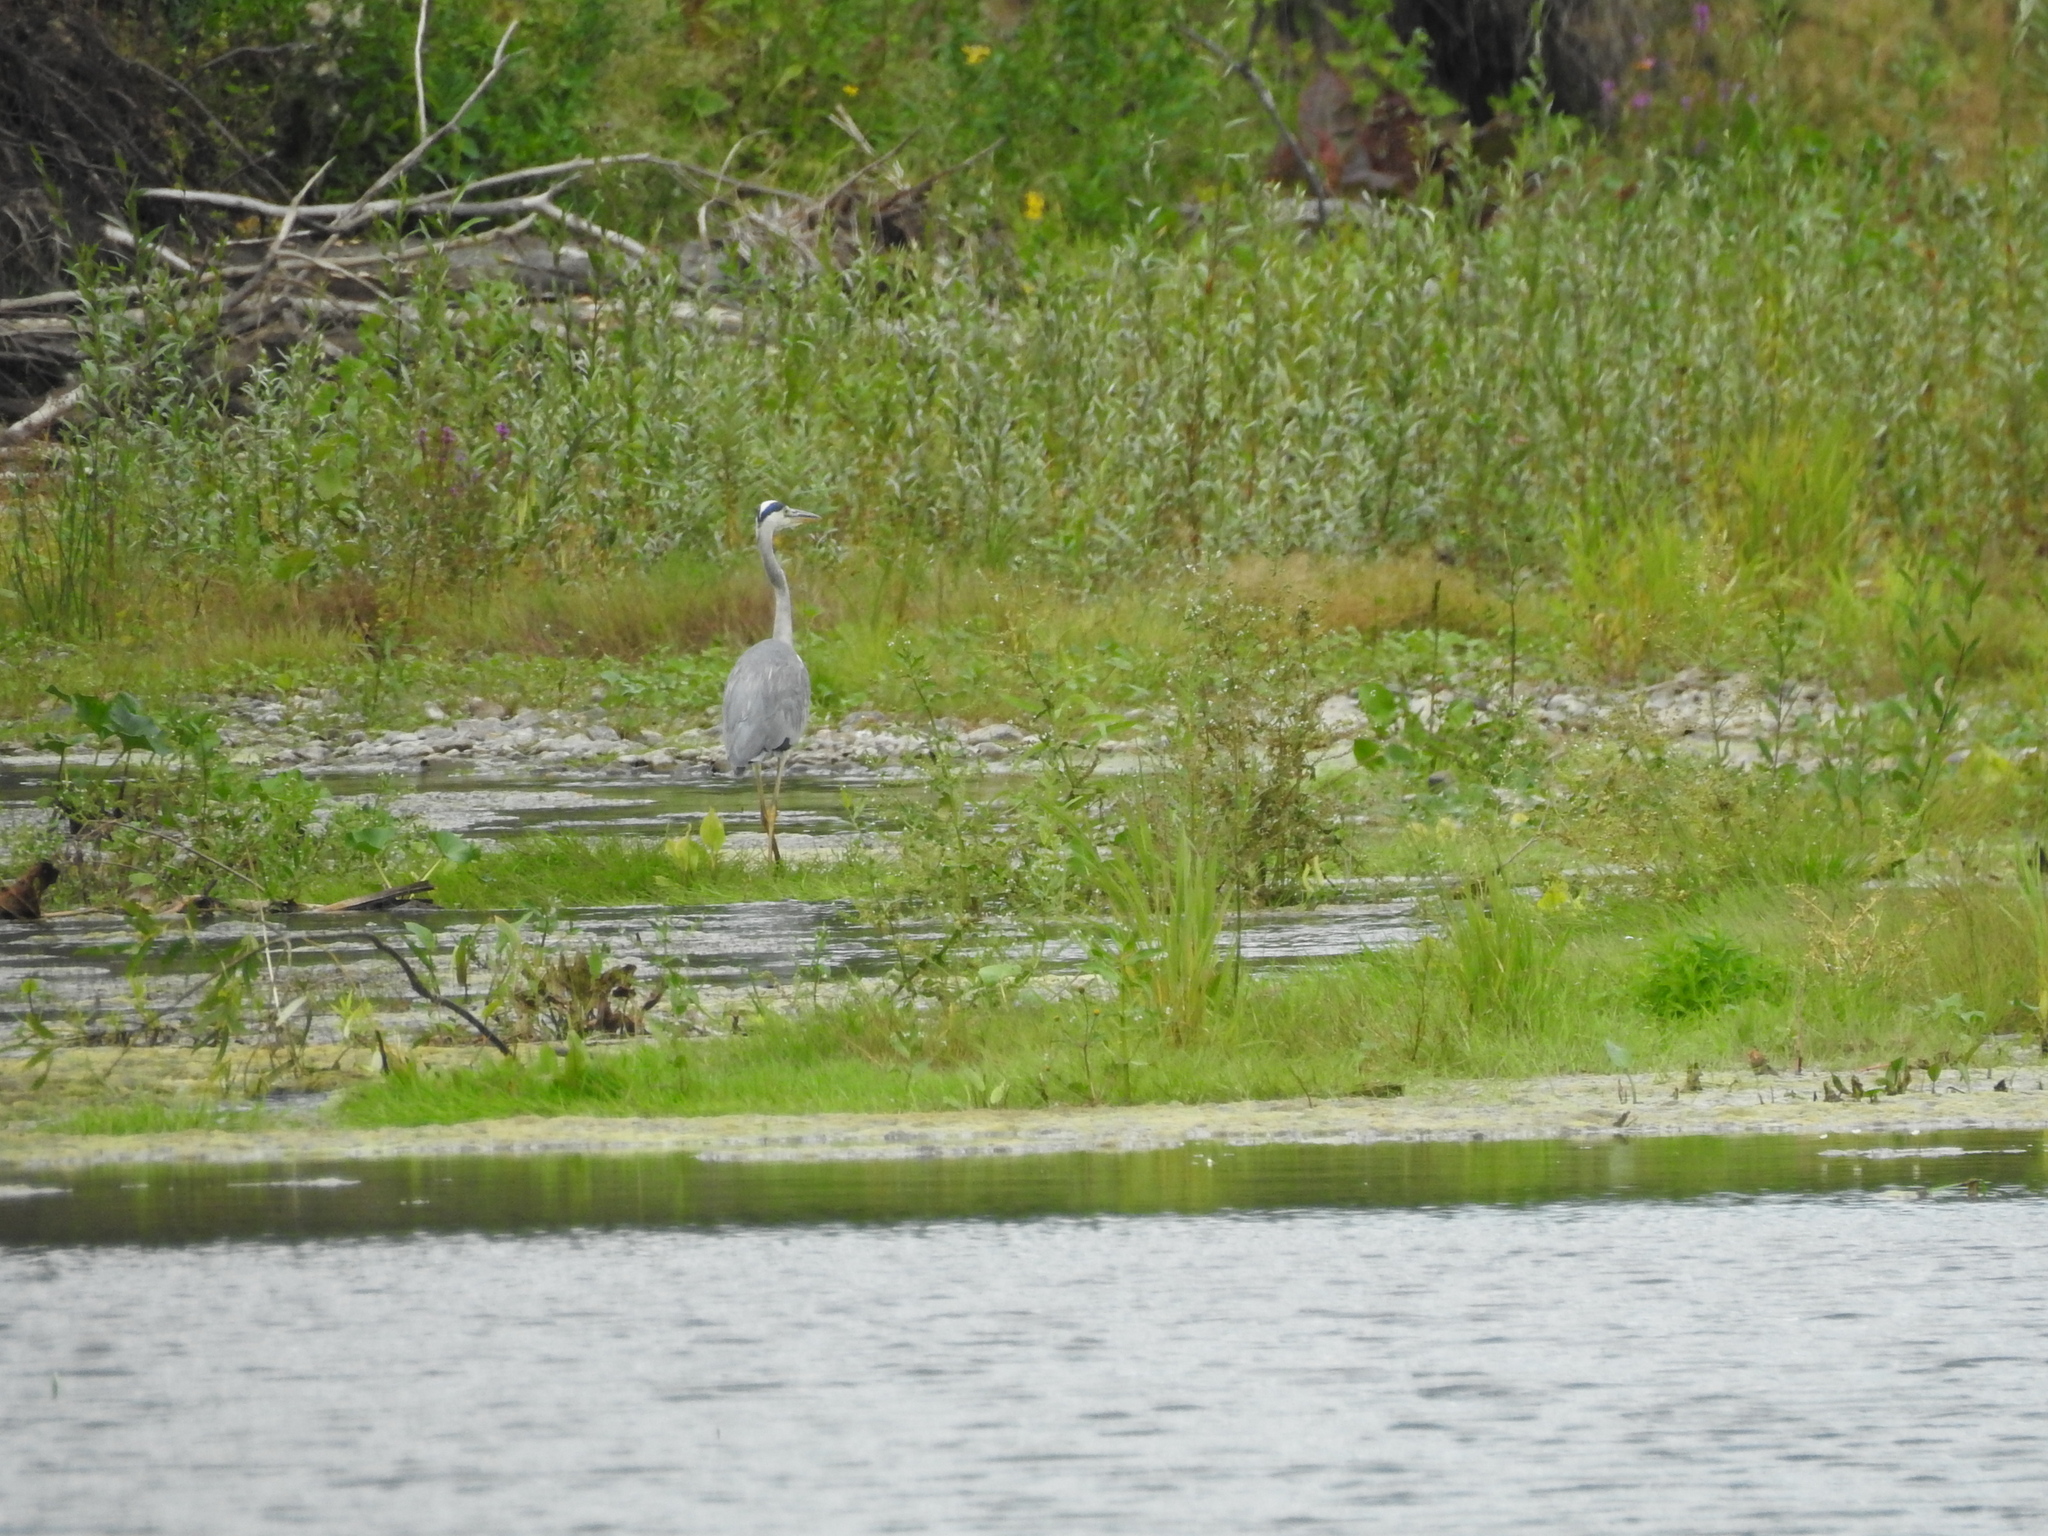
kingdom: Animalia
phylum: Chordata
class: Aves
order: Pelecaniformes
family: Ardeidae
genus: Ardea
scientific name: Ardea cinerea
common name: Grey heron
